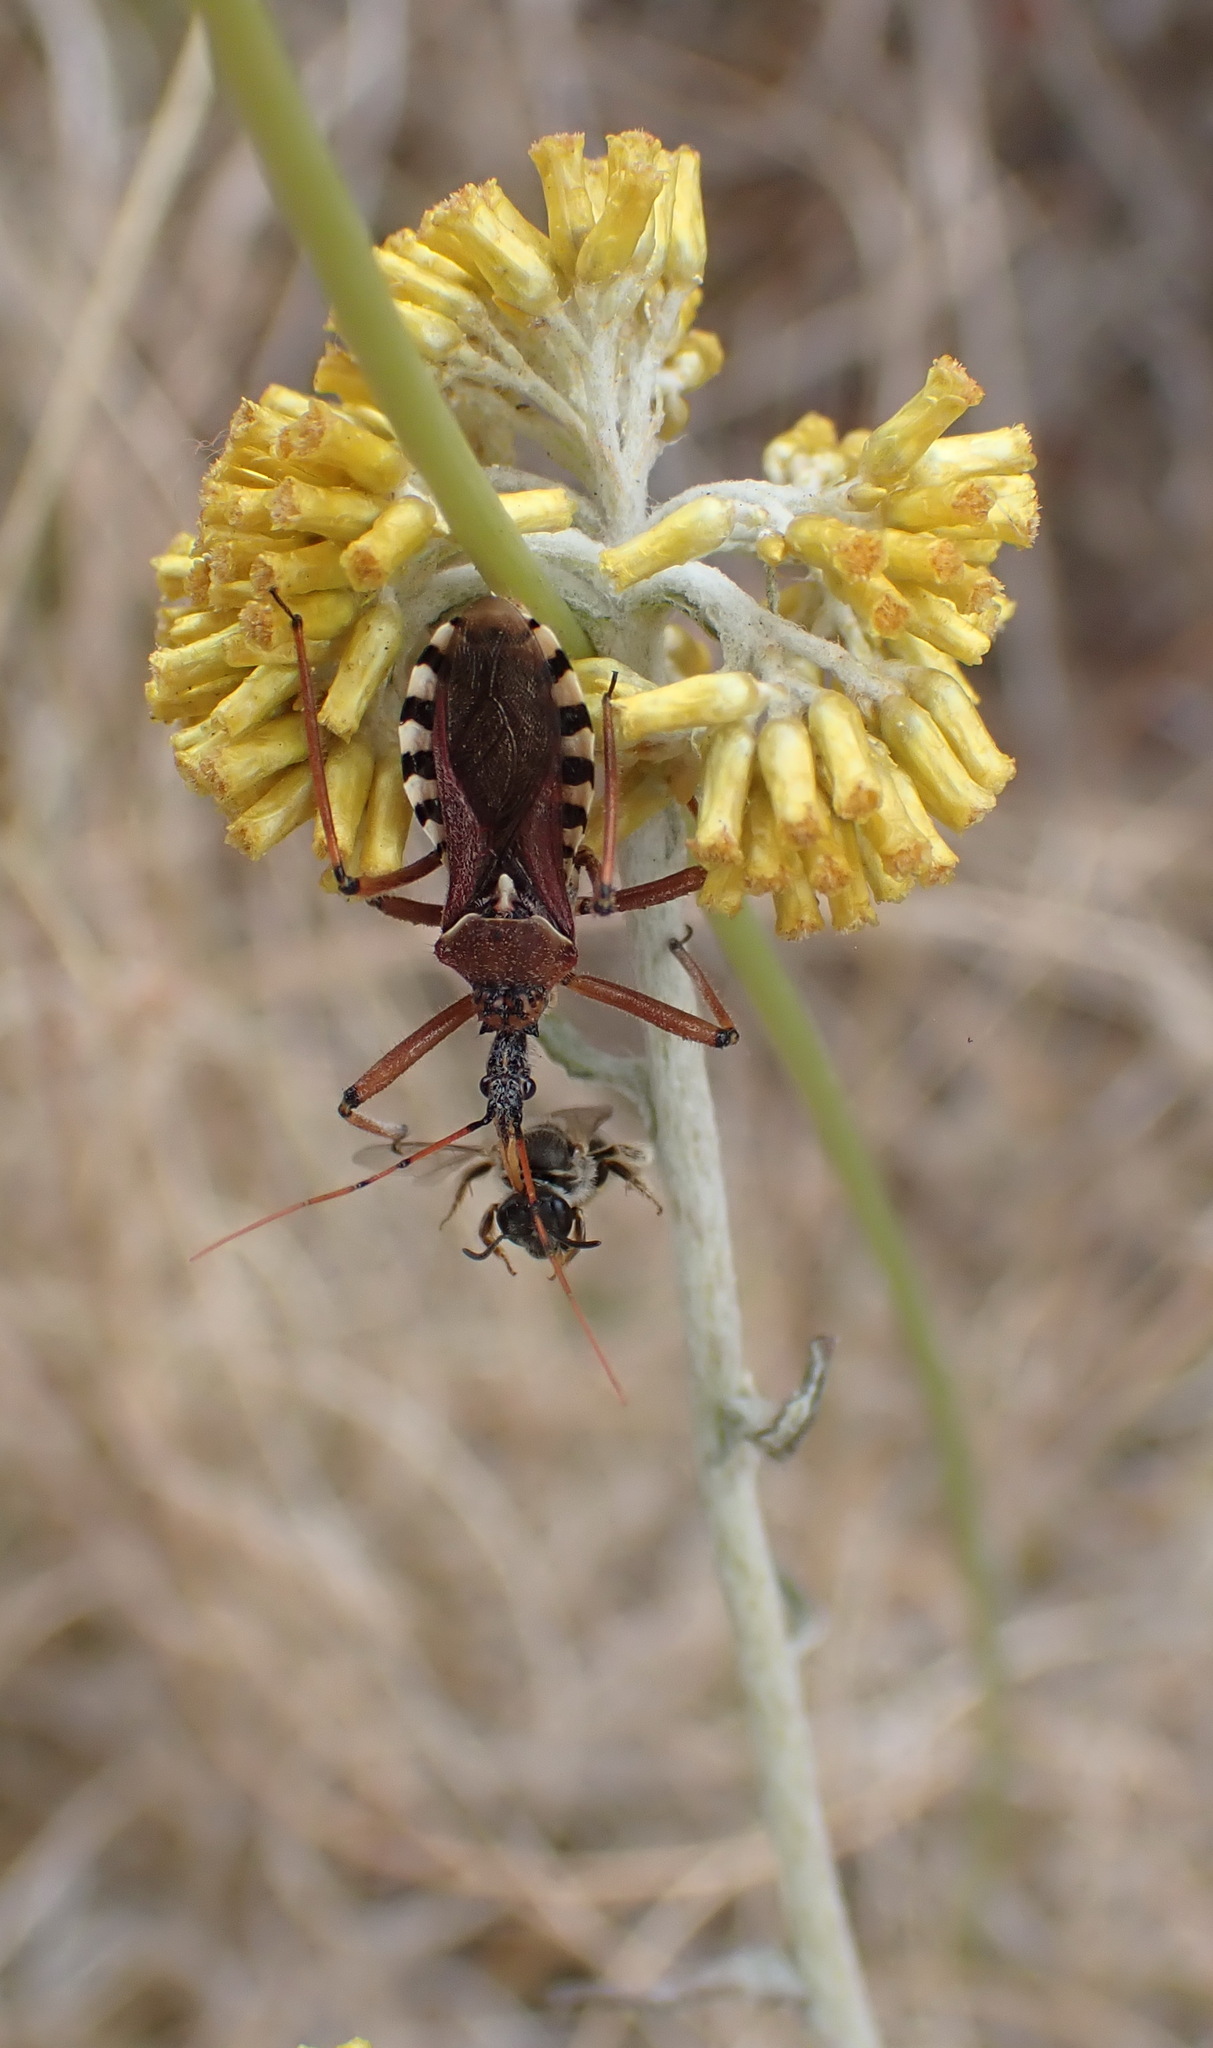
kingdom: Plantae
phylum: Tracheophyta
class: Magnoliopsida
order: Asterales
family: Asteraceae
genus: Helichrysum
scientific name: Helichrysum cymosum
